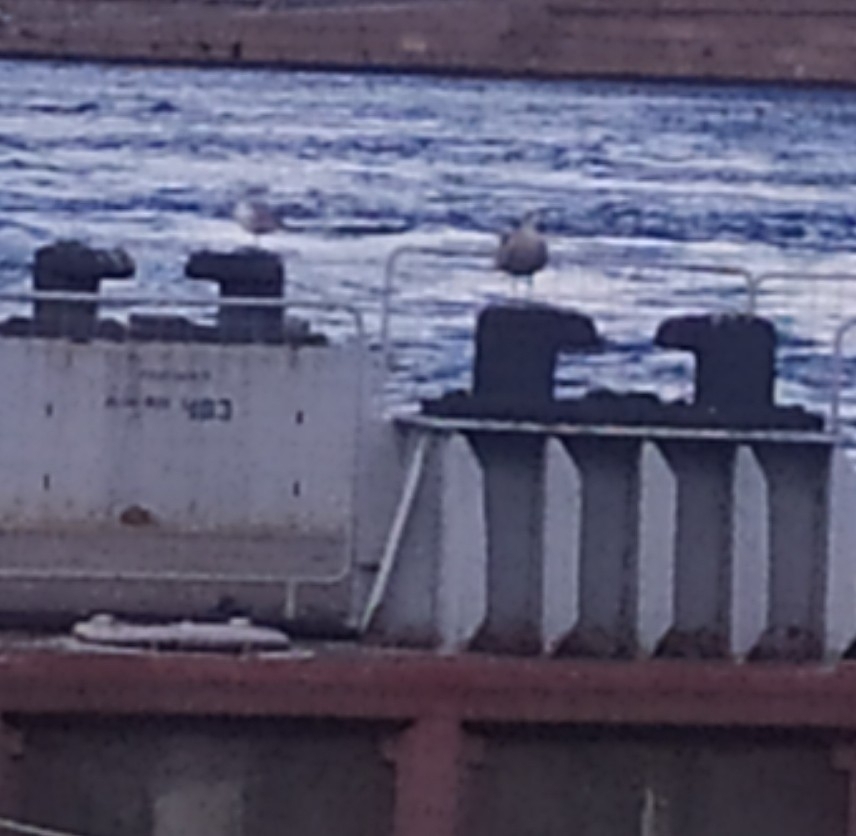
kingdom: Animalia
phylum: Chordata
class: Aves
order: Charadriiformes
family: Laridae
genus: Larus
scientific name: Larus argentatus
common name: Herring gull
